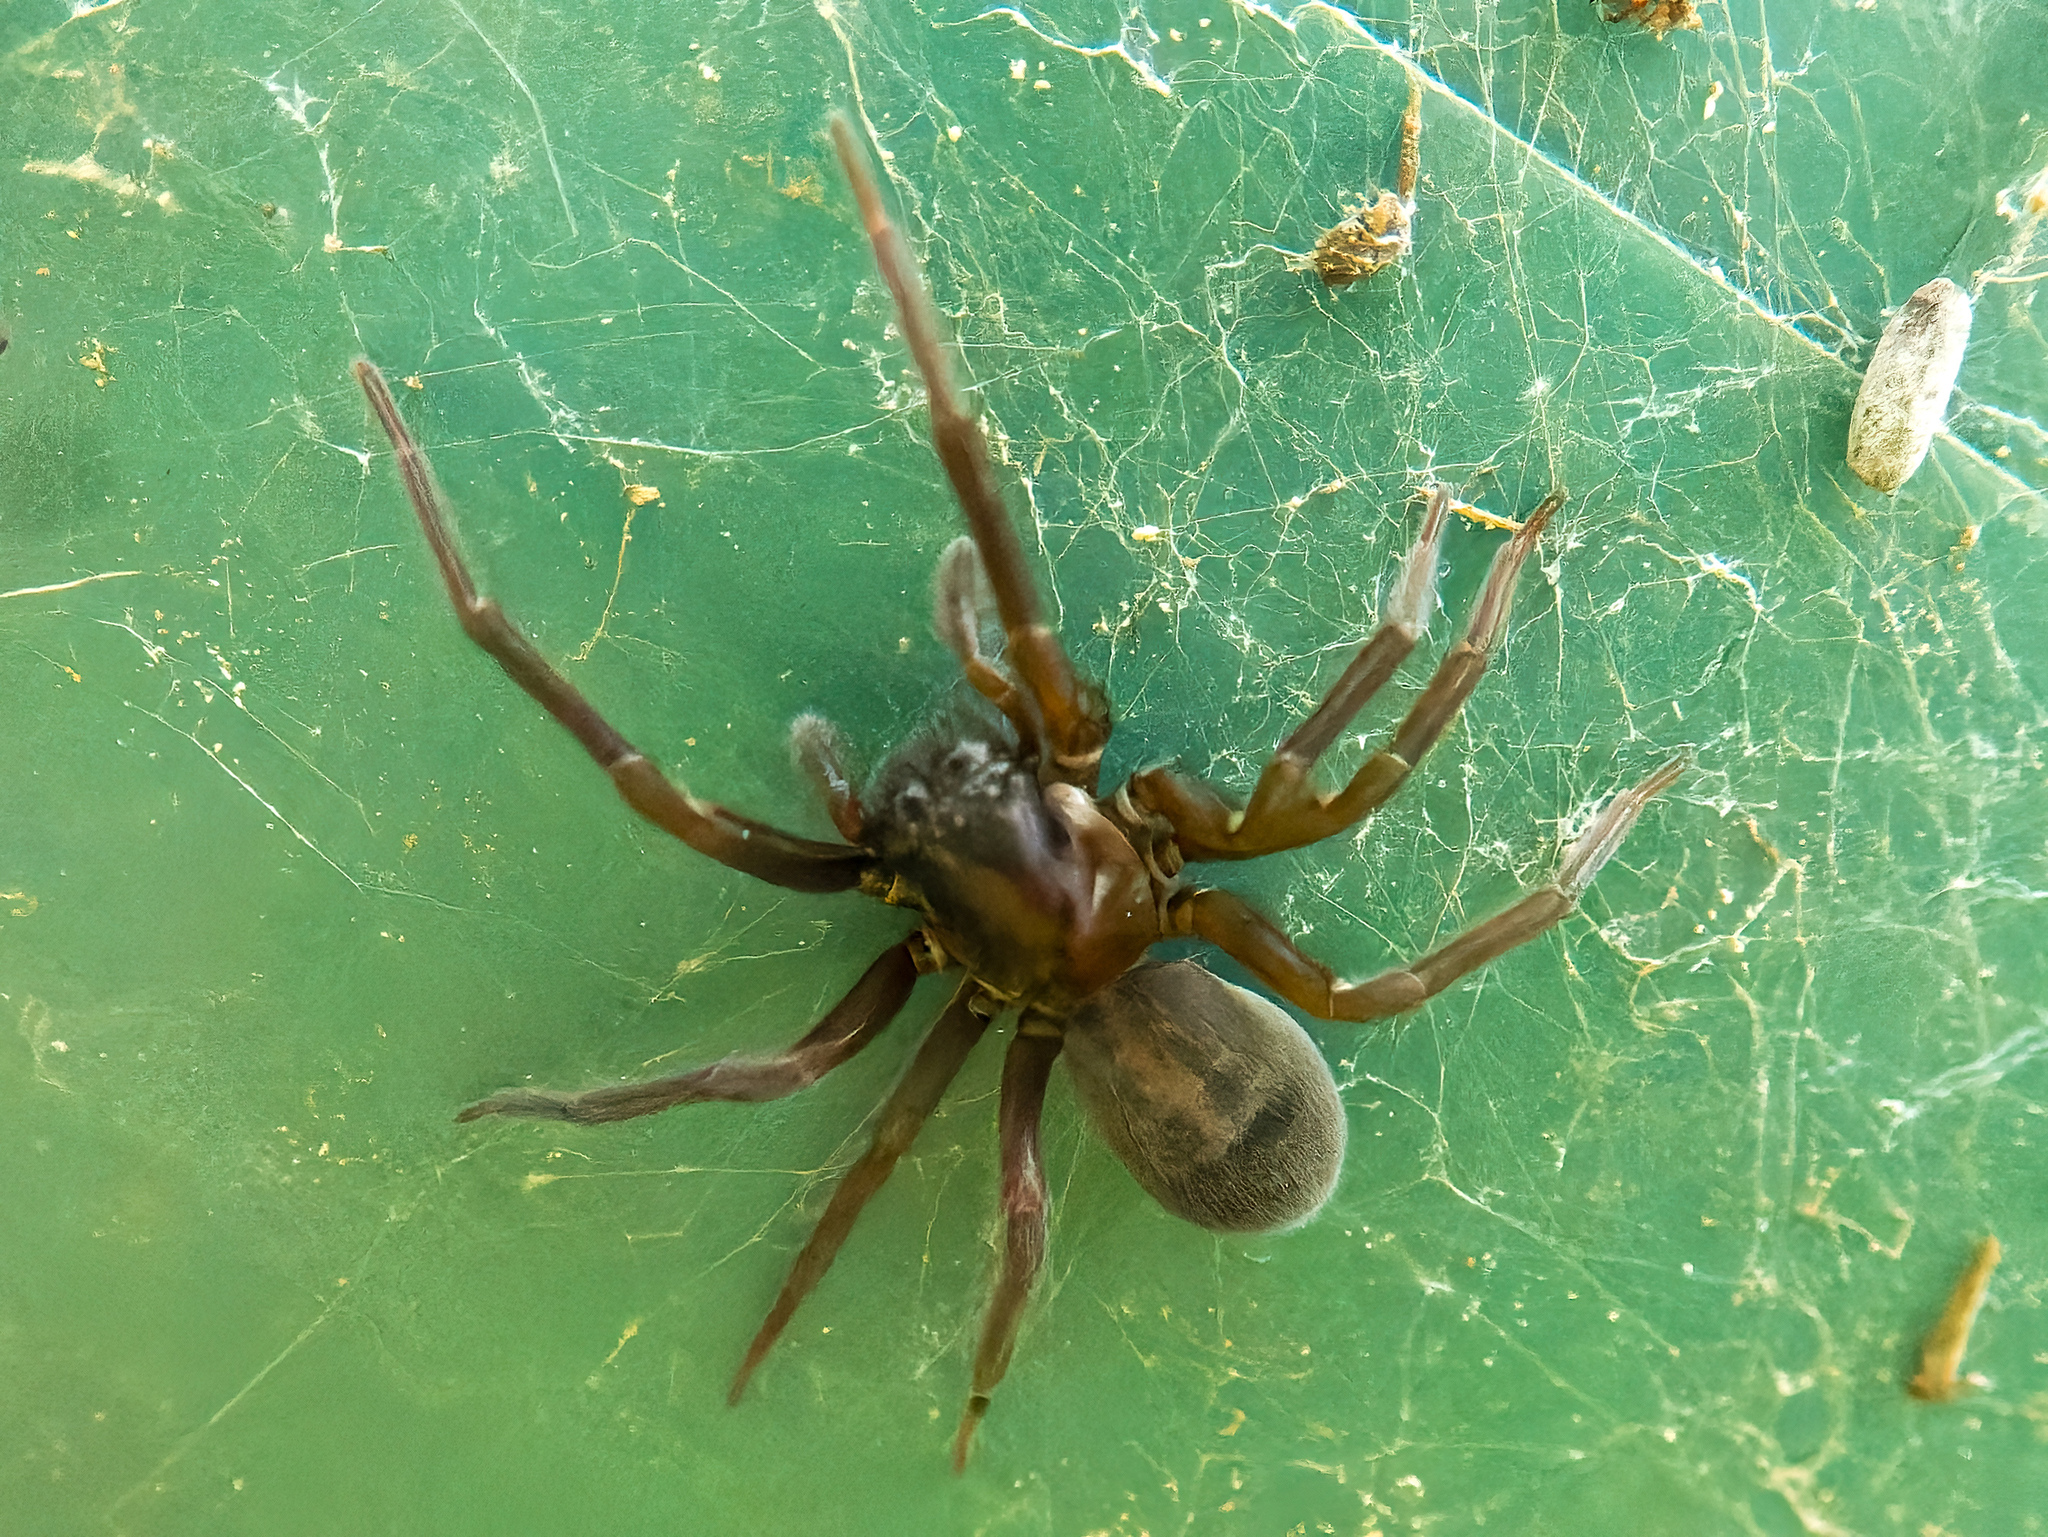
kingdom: Animalia
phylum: Arthropoda
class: Arachnida
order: Araneae
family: Amaurobiidae
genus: Amaurobius
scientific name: Amaurobius ferox
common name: Black laceweaver
